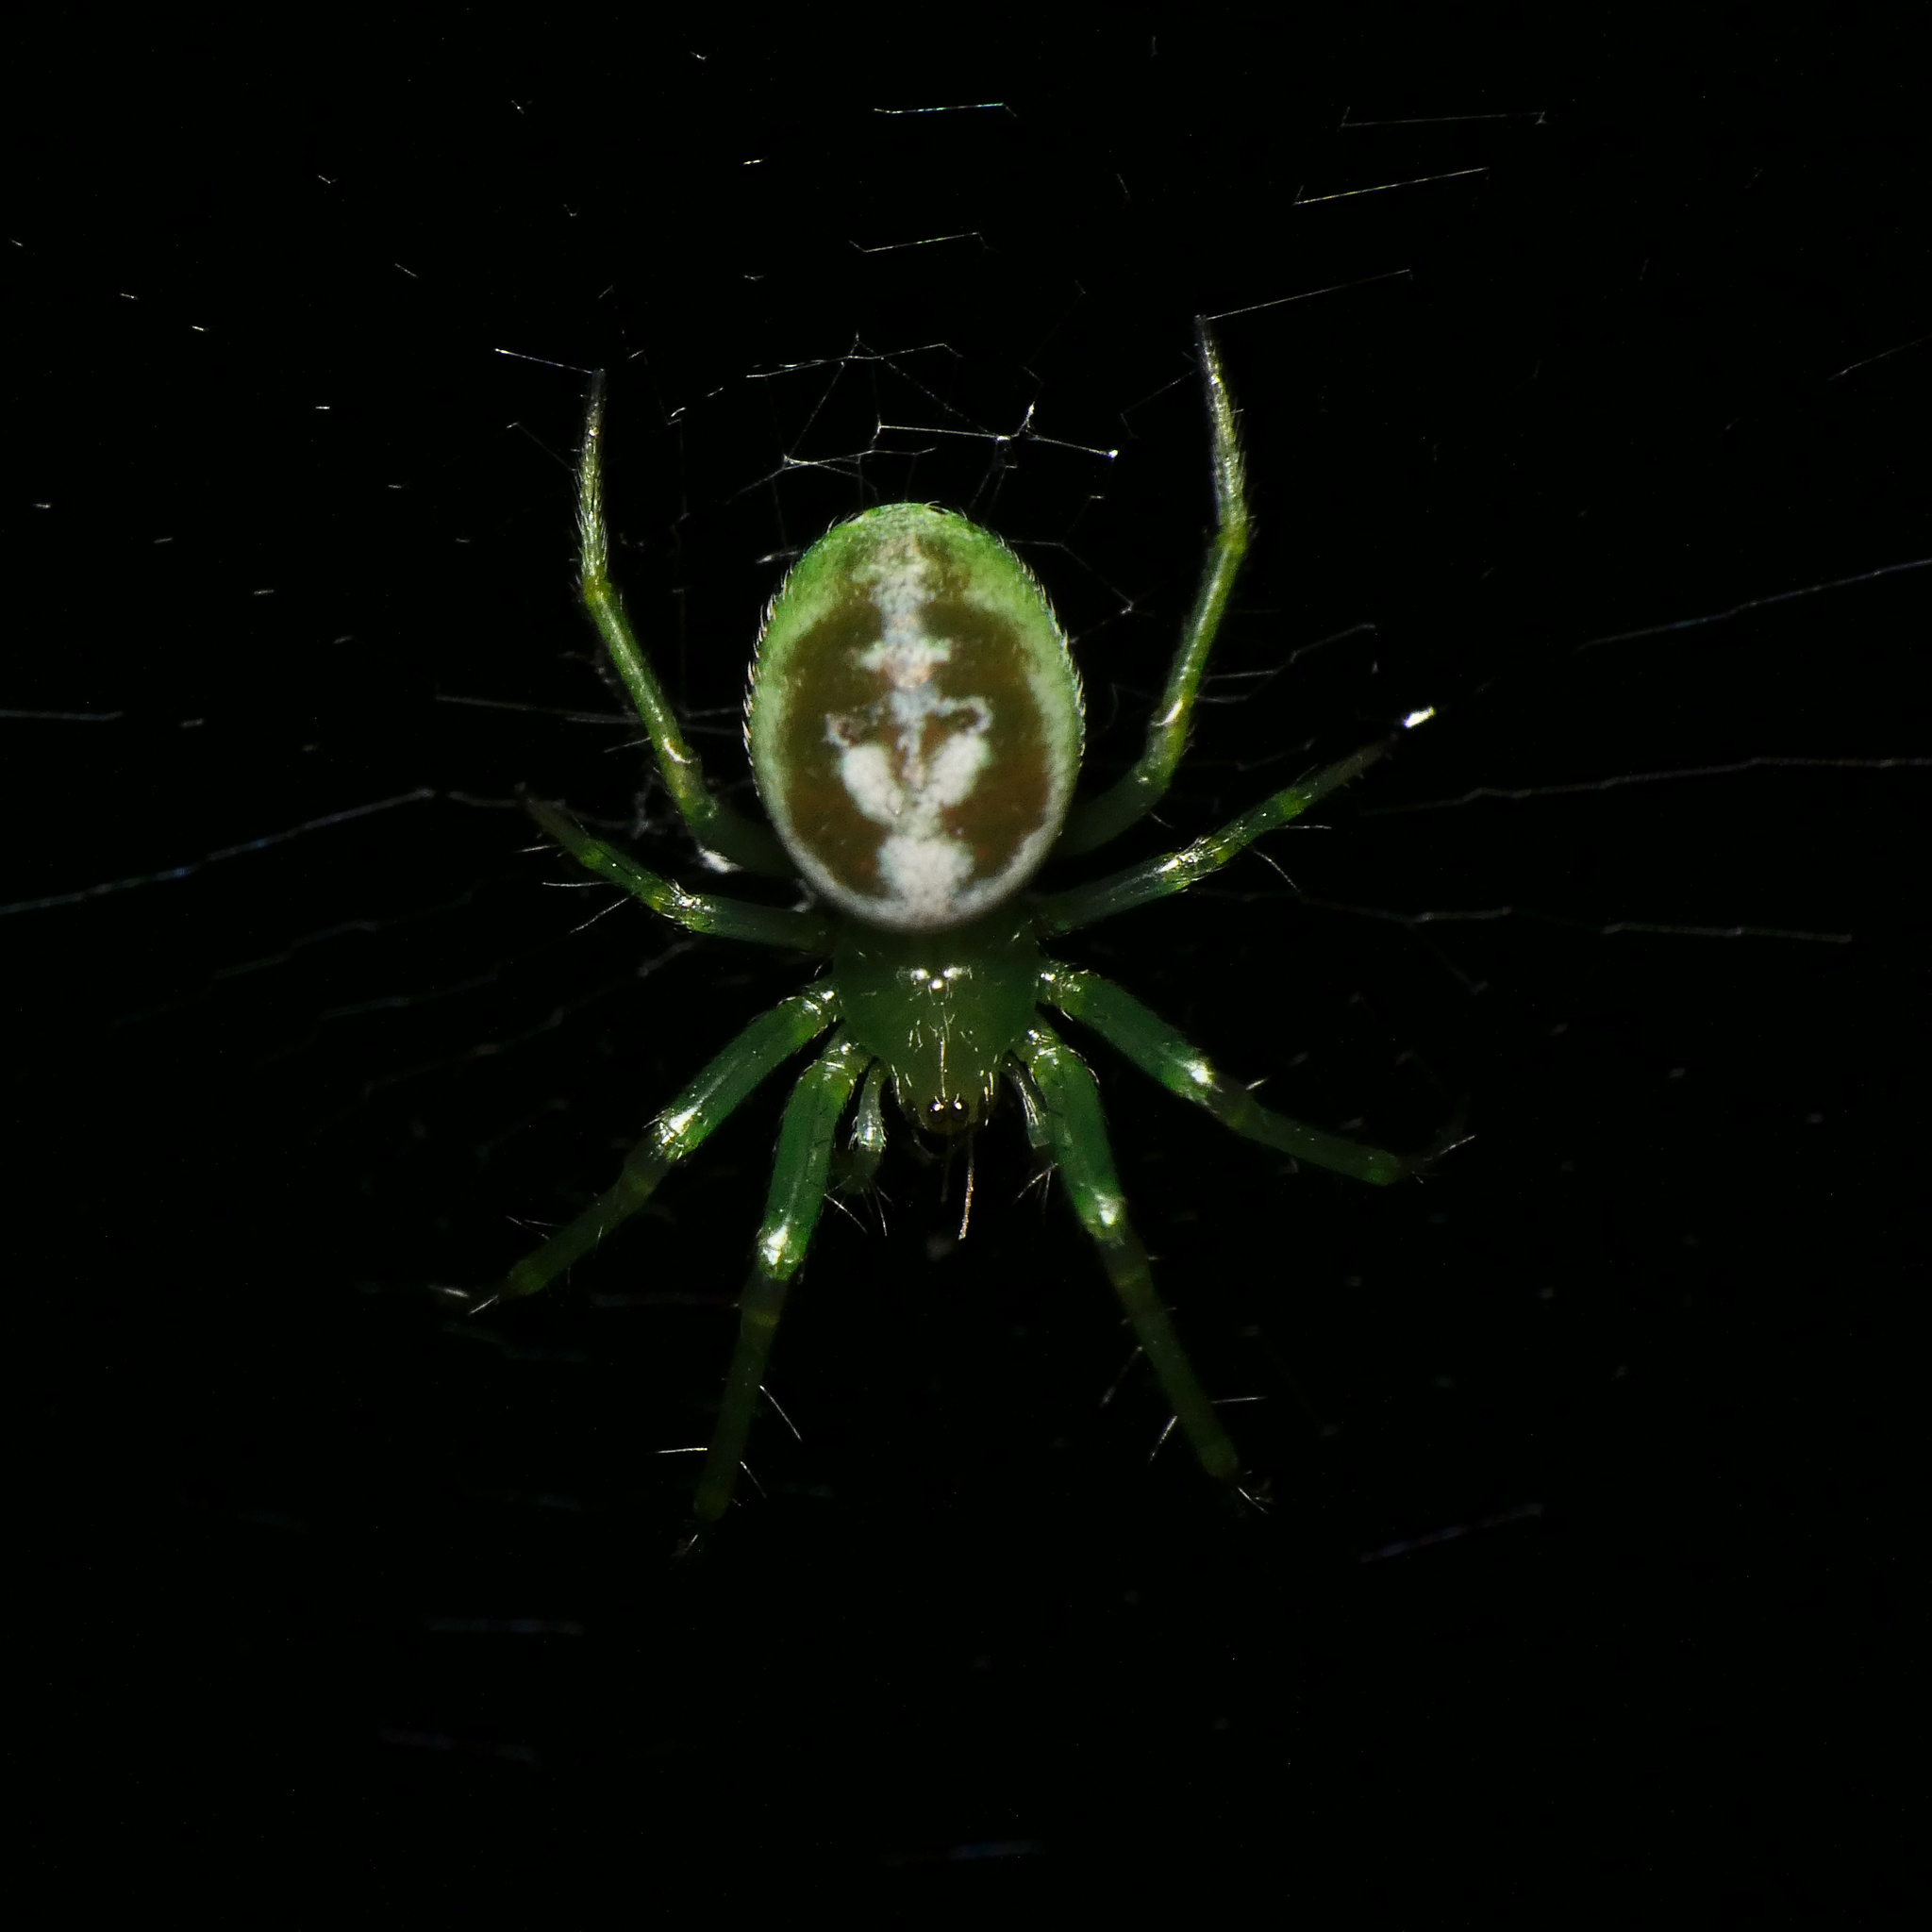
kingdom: Animalia
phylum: Arthropoda
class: Arachnida
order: Araneae
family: Araneidae
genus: Prasonica
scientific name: Prasonica nigrotaeniata
